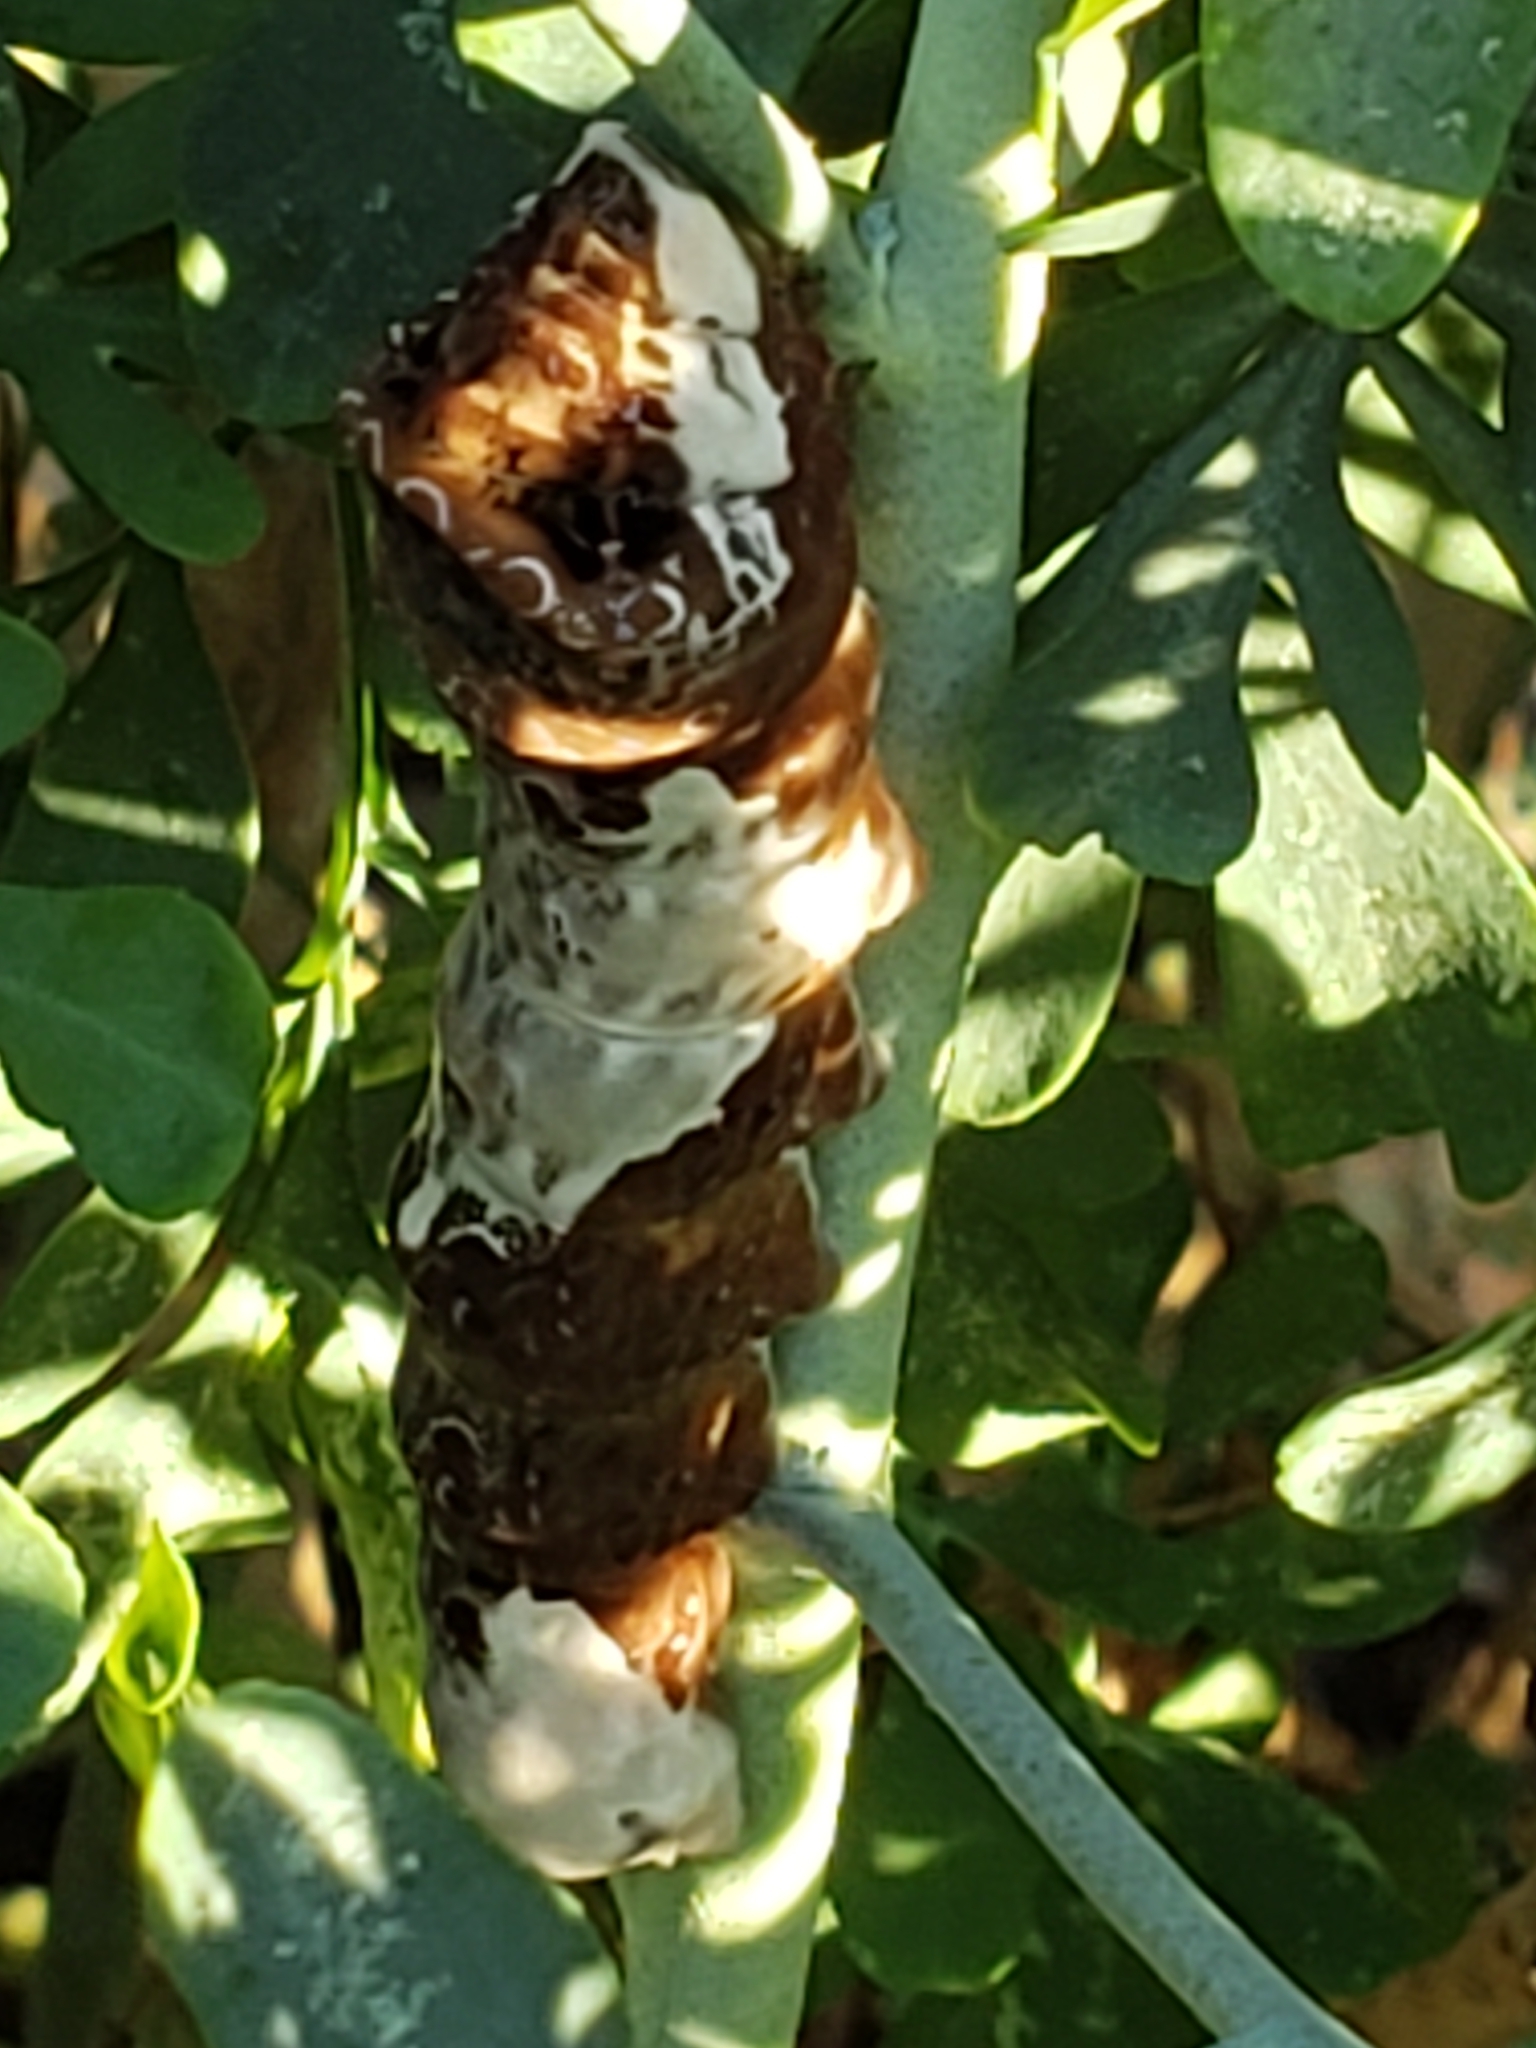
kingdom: Animalia
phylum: Arthropoda
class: Insecta
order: Lepidoptera
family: Papilionidae
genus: Papilio
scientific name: Papilio cresphontes
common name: Giant swallowtail
